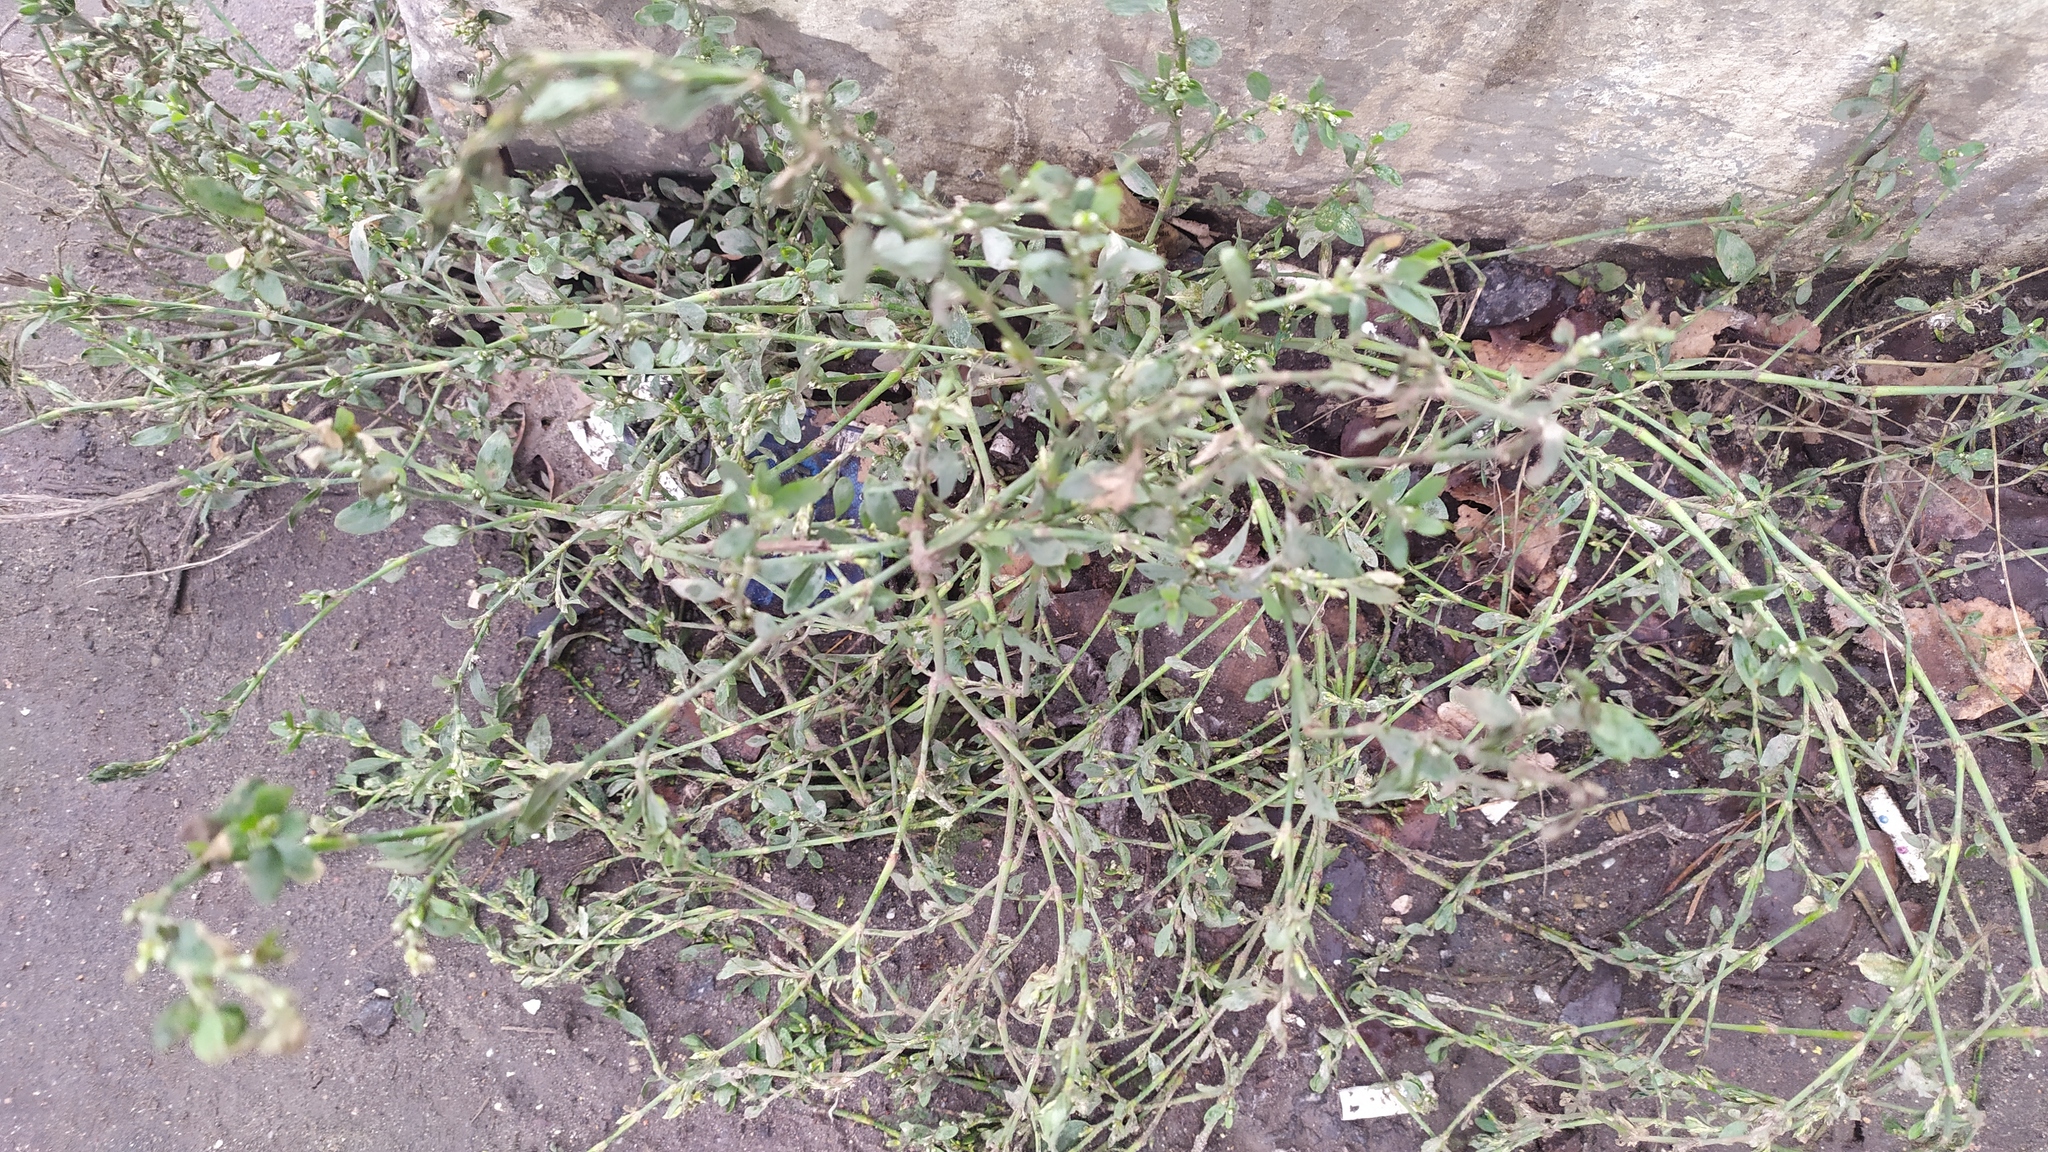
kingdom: Plantae
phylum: Tracheophyta
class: Magnoliopsida
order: Caryophyllales
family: Polygonaceae
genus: Polygonum
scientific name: Polygonum
